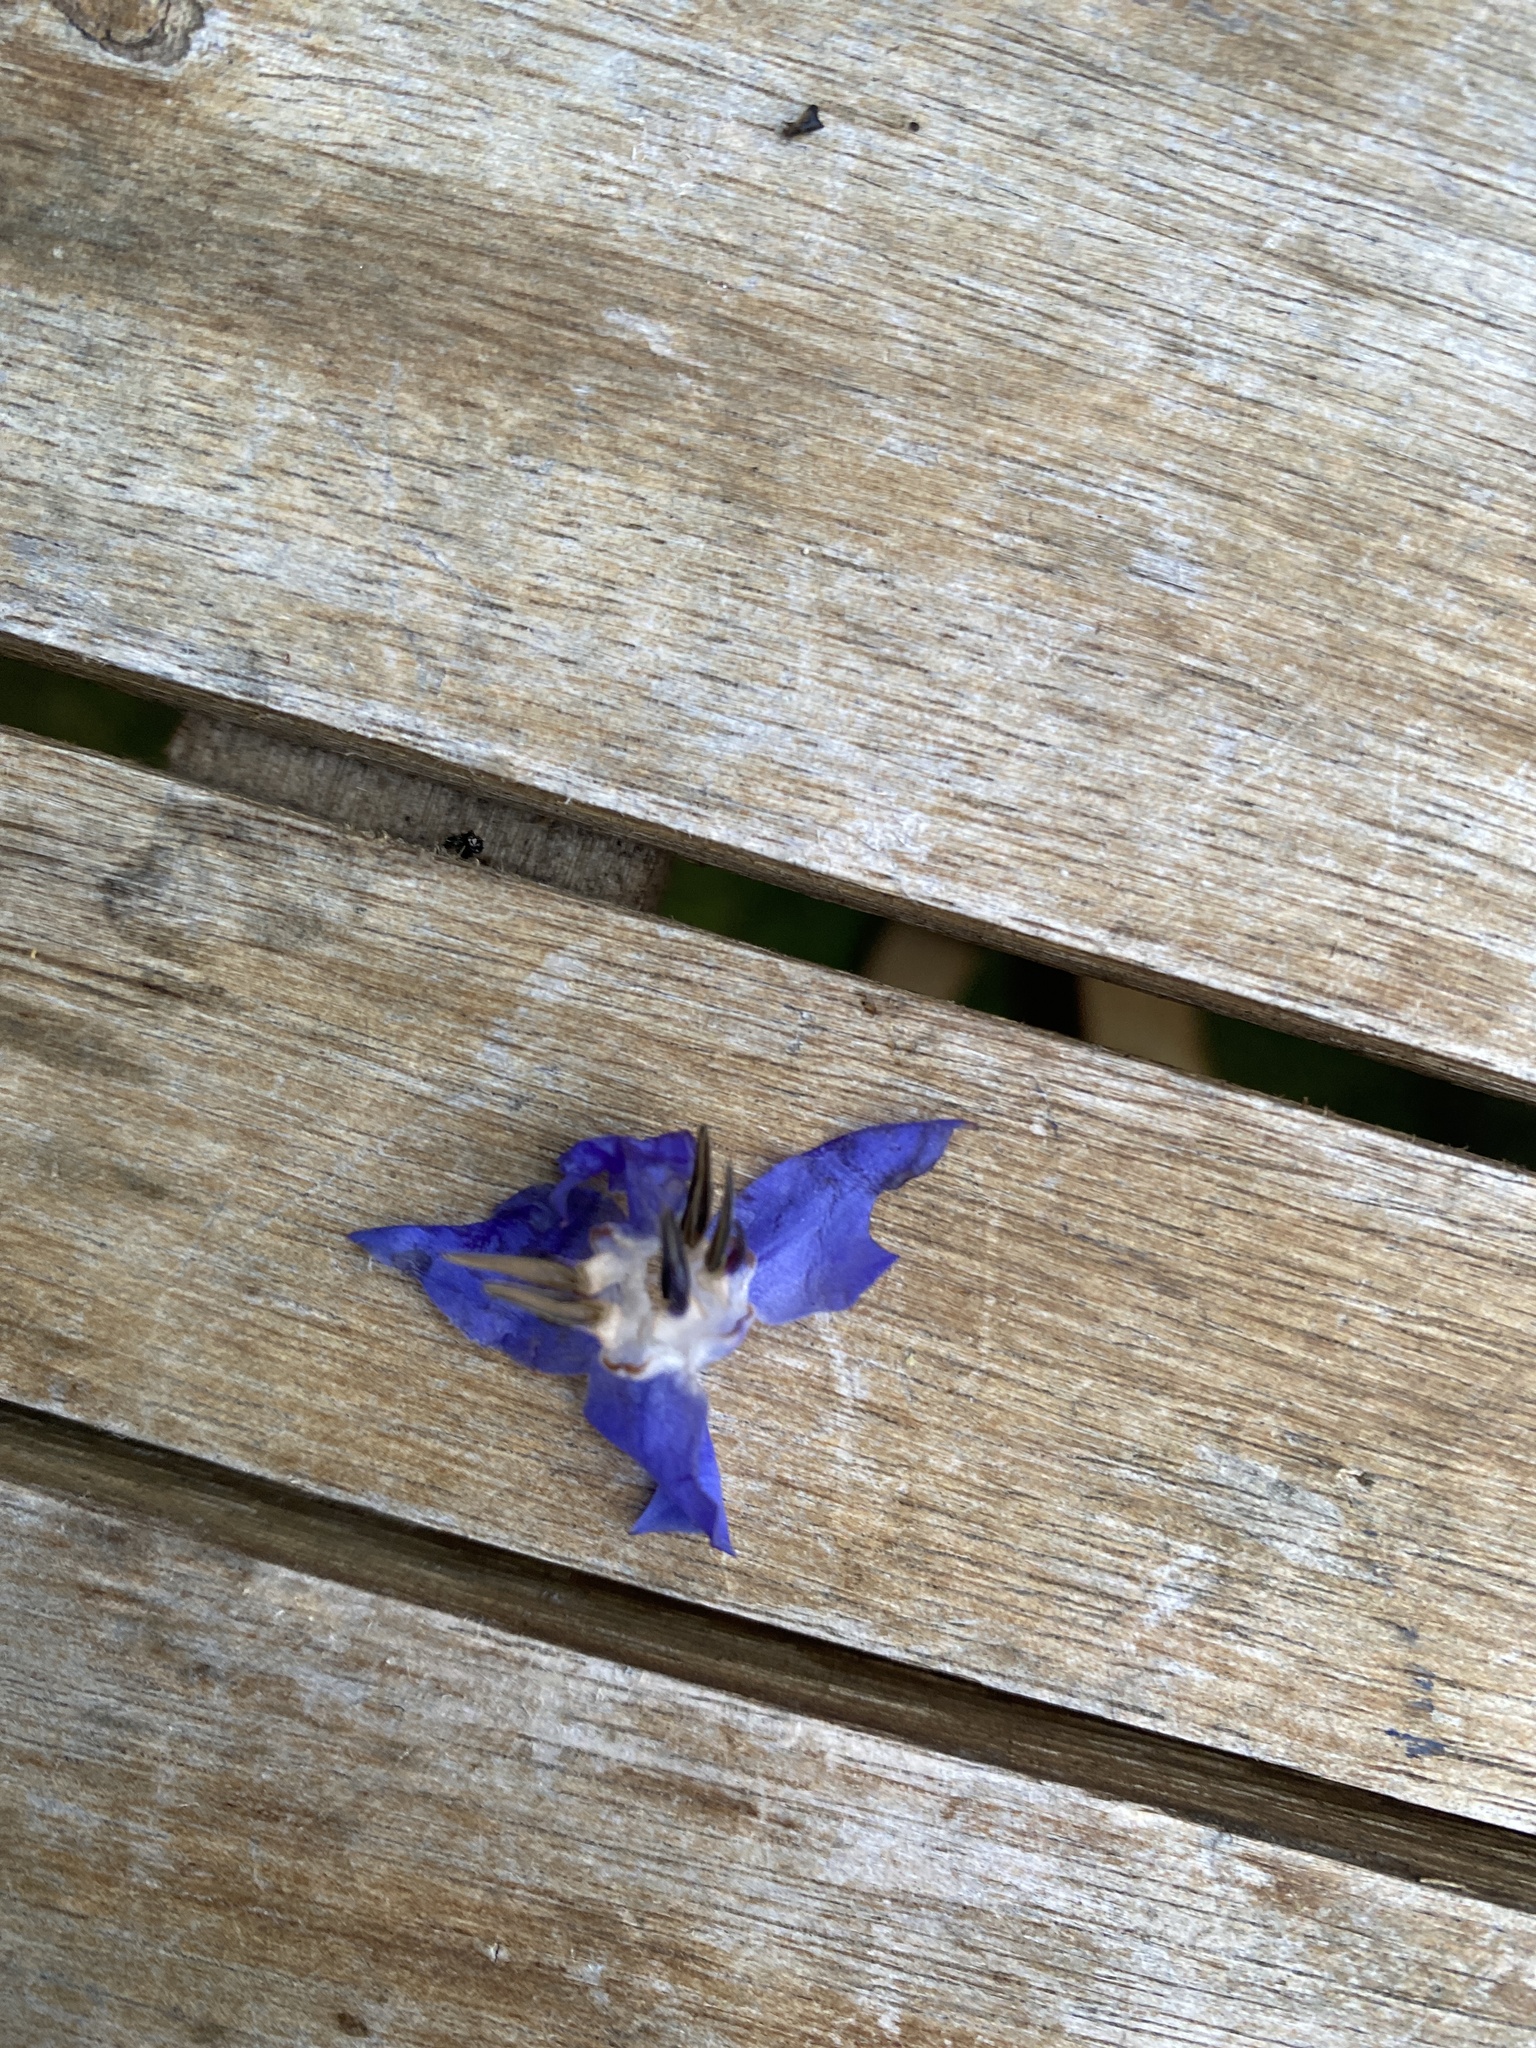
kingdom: Plantae
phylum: Tracheophyta
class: Magnoliopsida
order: Boraginales
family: Boraginaceae
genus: Borago
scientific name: Borago officinalis
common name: Borage
